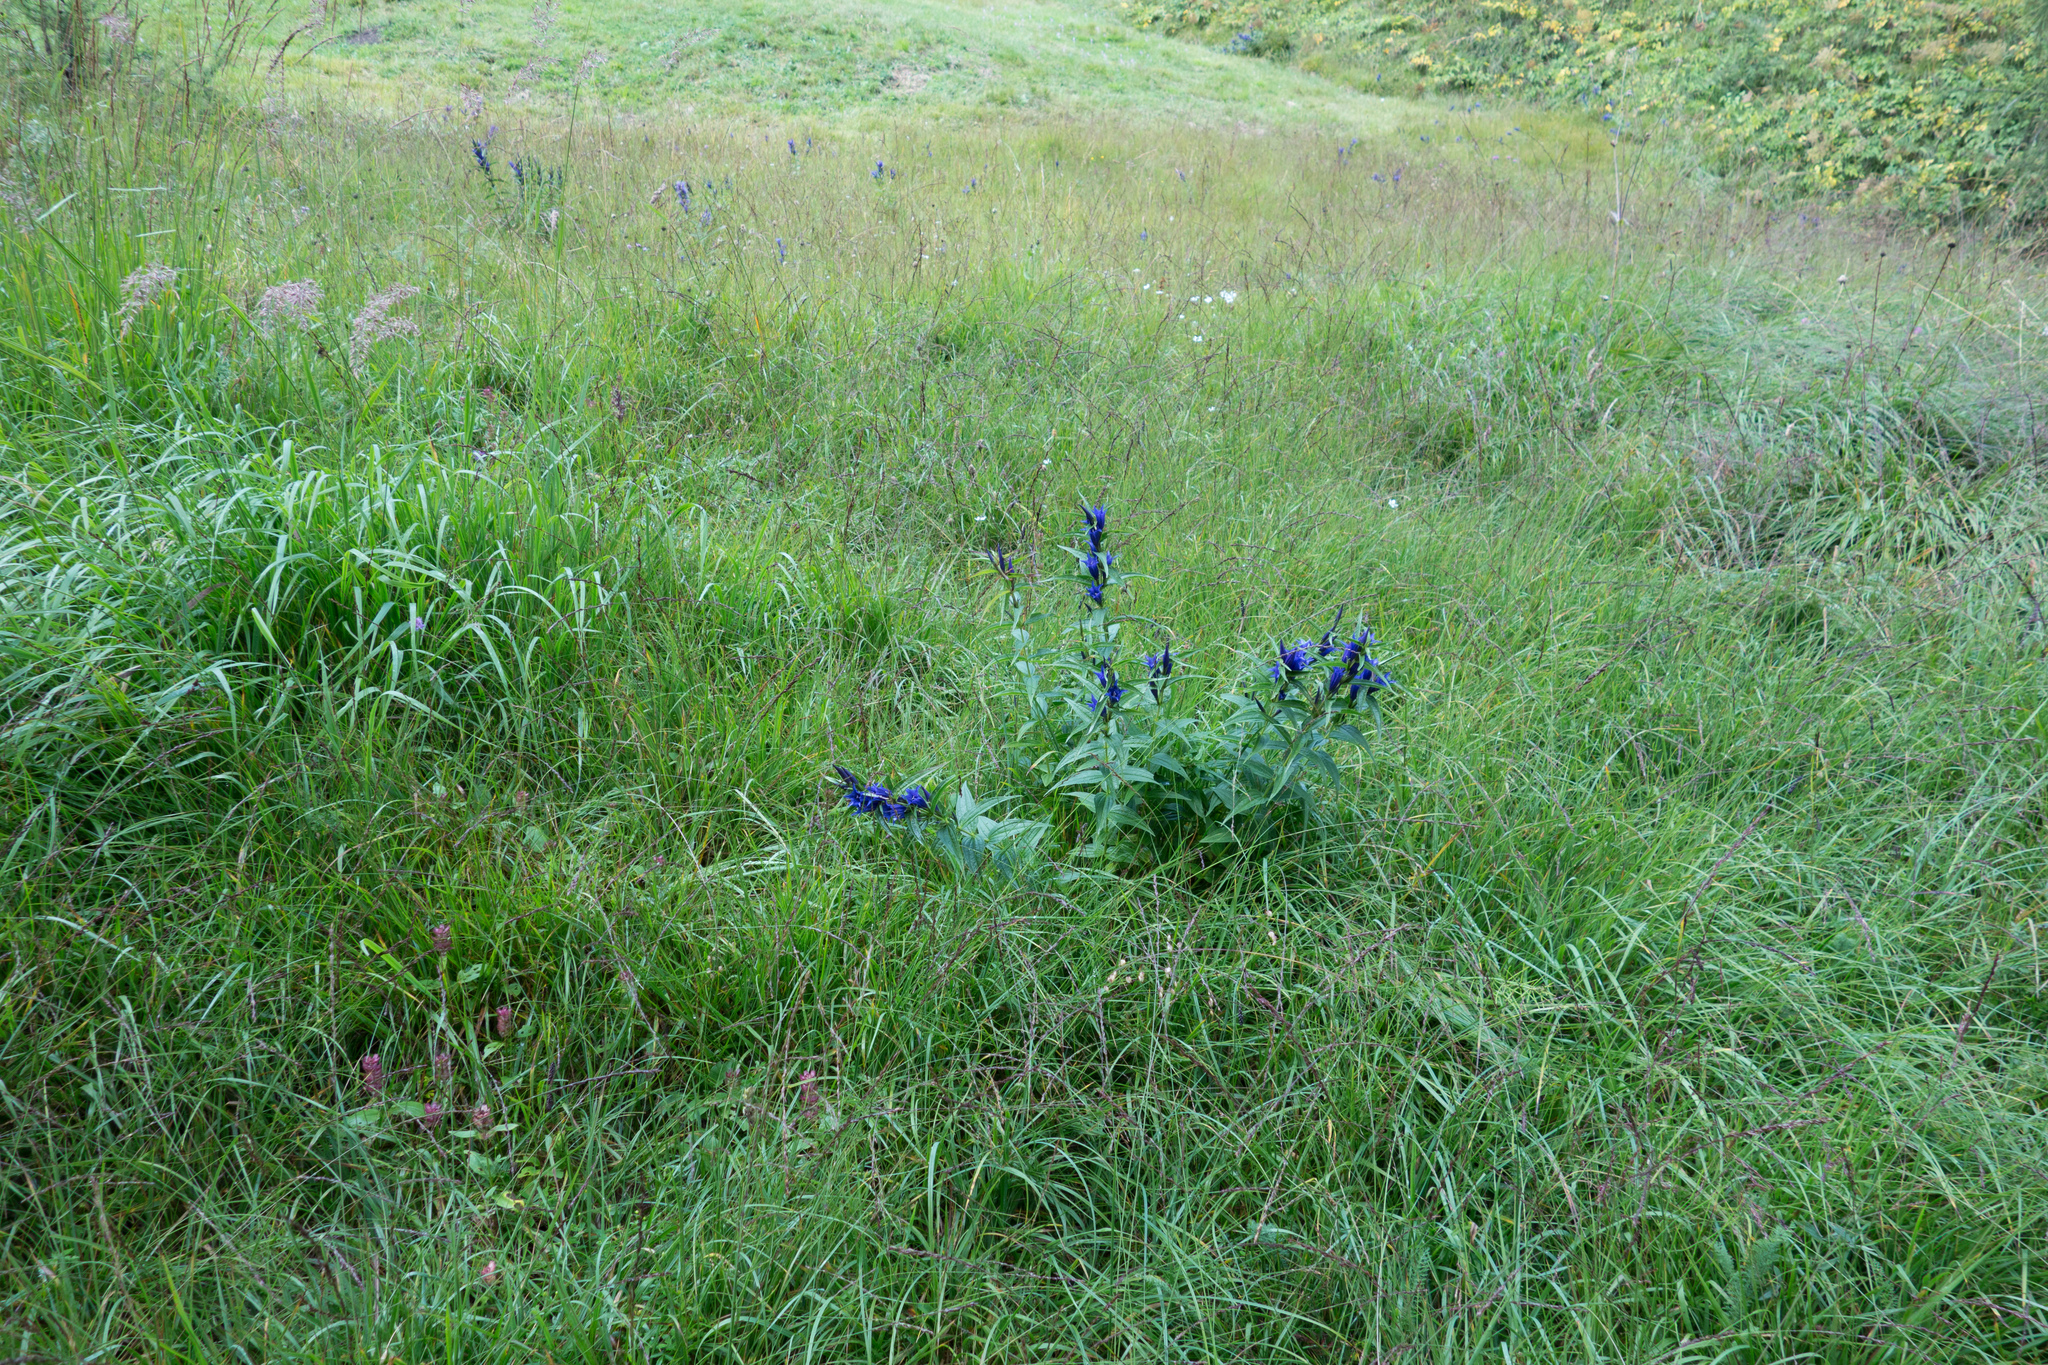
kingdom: Plantae
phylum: Tracheophyta
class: Magnoliopsida
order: Gentianales
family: Gentianaceae
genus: Gentiana
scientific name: Gentiana asclepiadea
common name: Willow gentian
